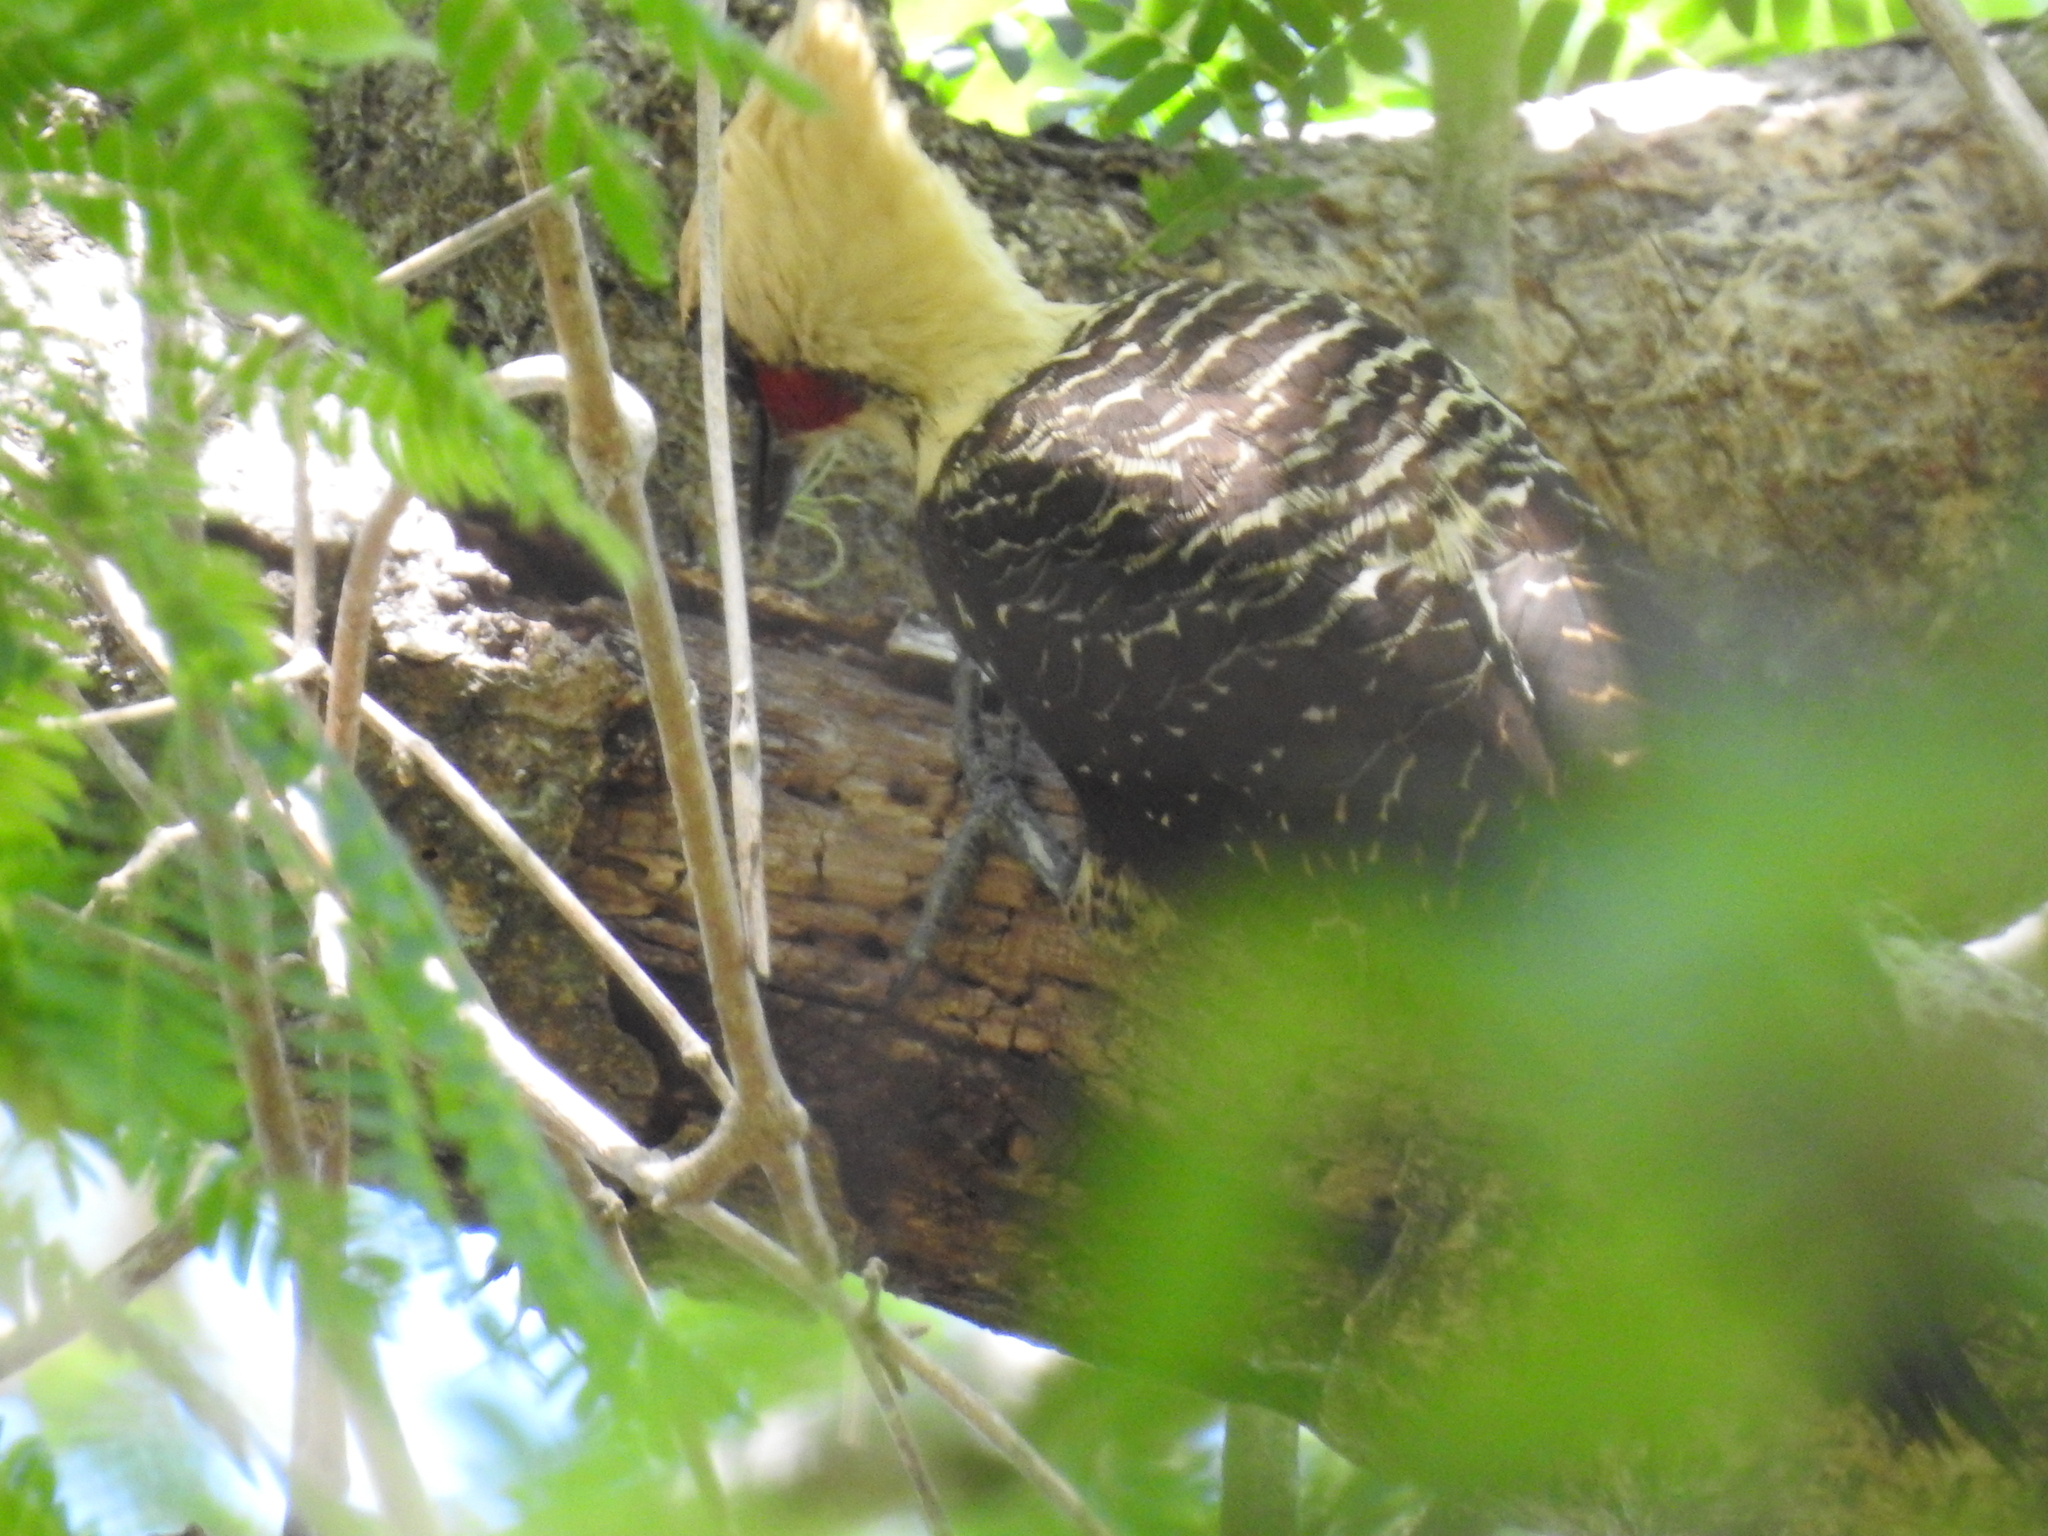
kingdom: Animalia
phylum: Chordata
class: Aves
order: Piciformes
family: Picidae
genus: Celeus
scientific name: Celeus lugubris
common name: Pale-crested woodpecker
